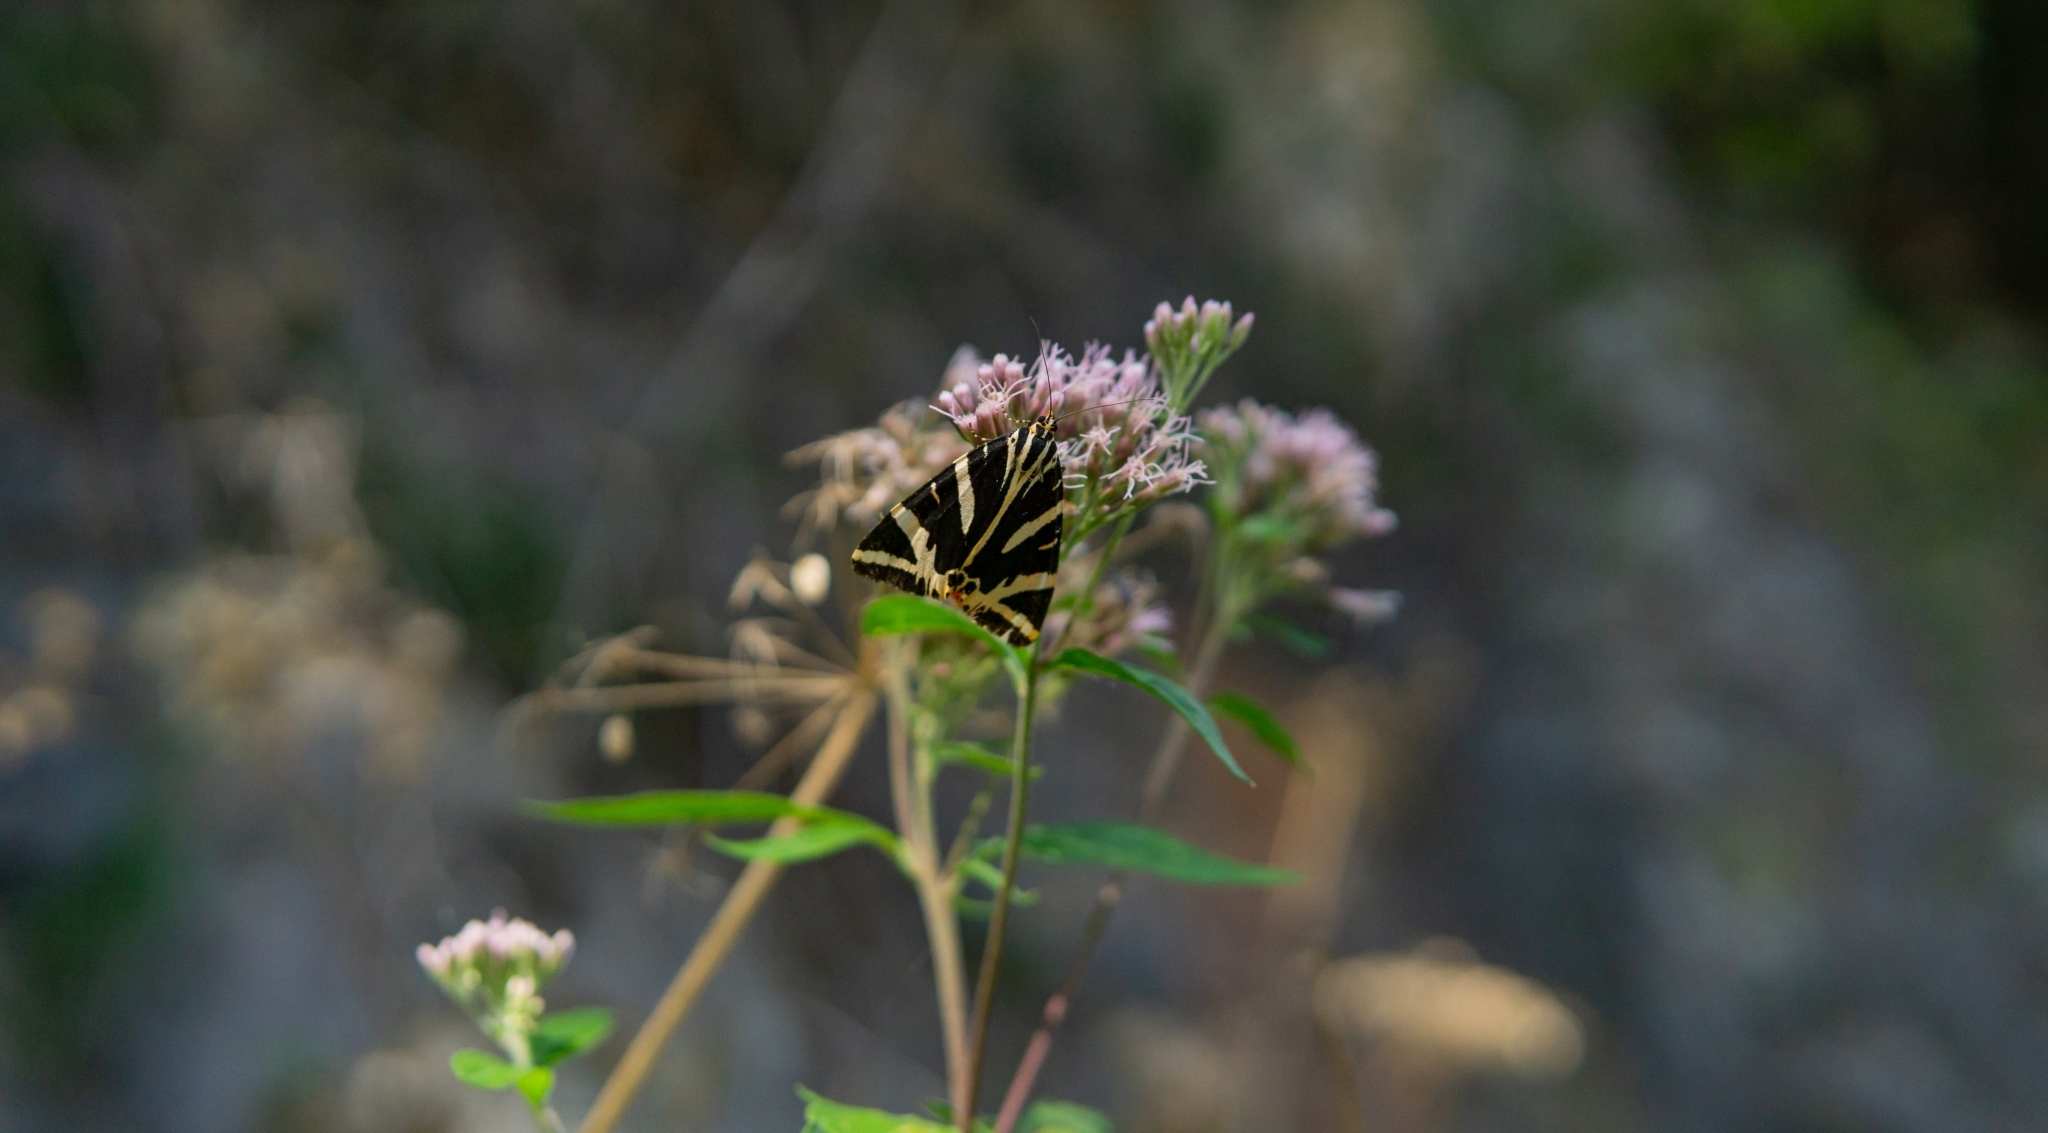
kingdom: Animalia
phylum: Arthropoda
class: Insecta
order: Lepidoptera
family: Erebidae
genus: Euplagia
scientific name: Euplagia quadripunctaria
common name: Jersey tiger
